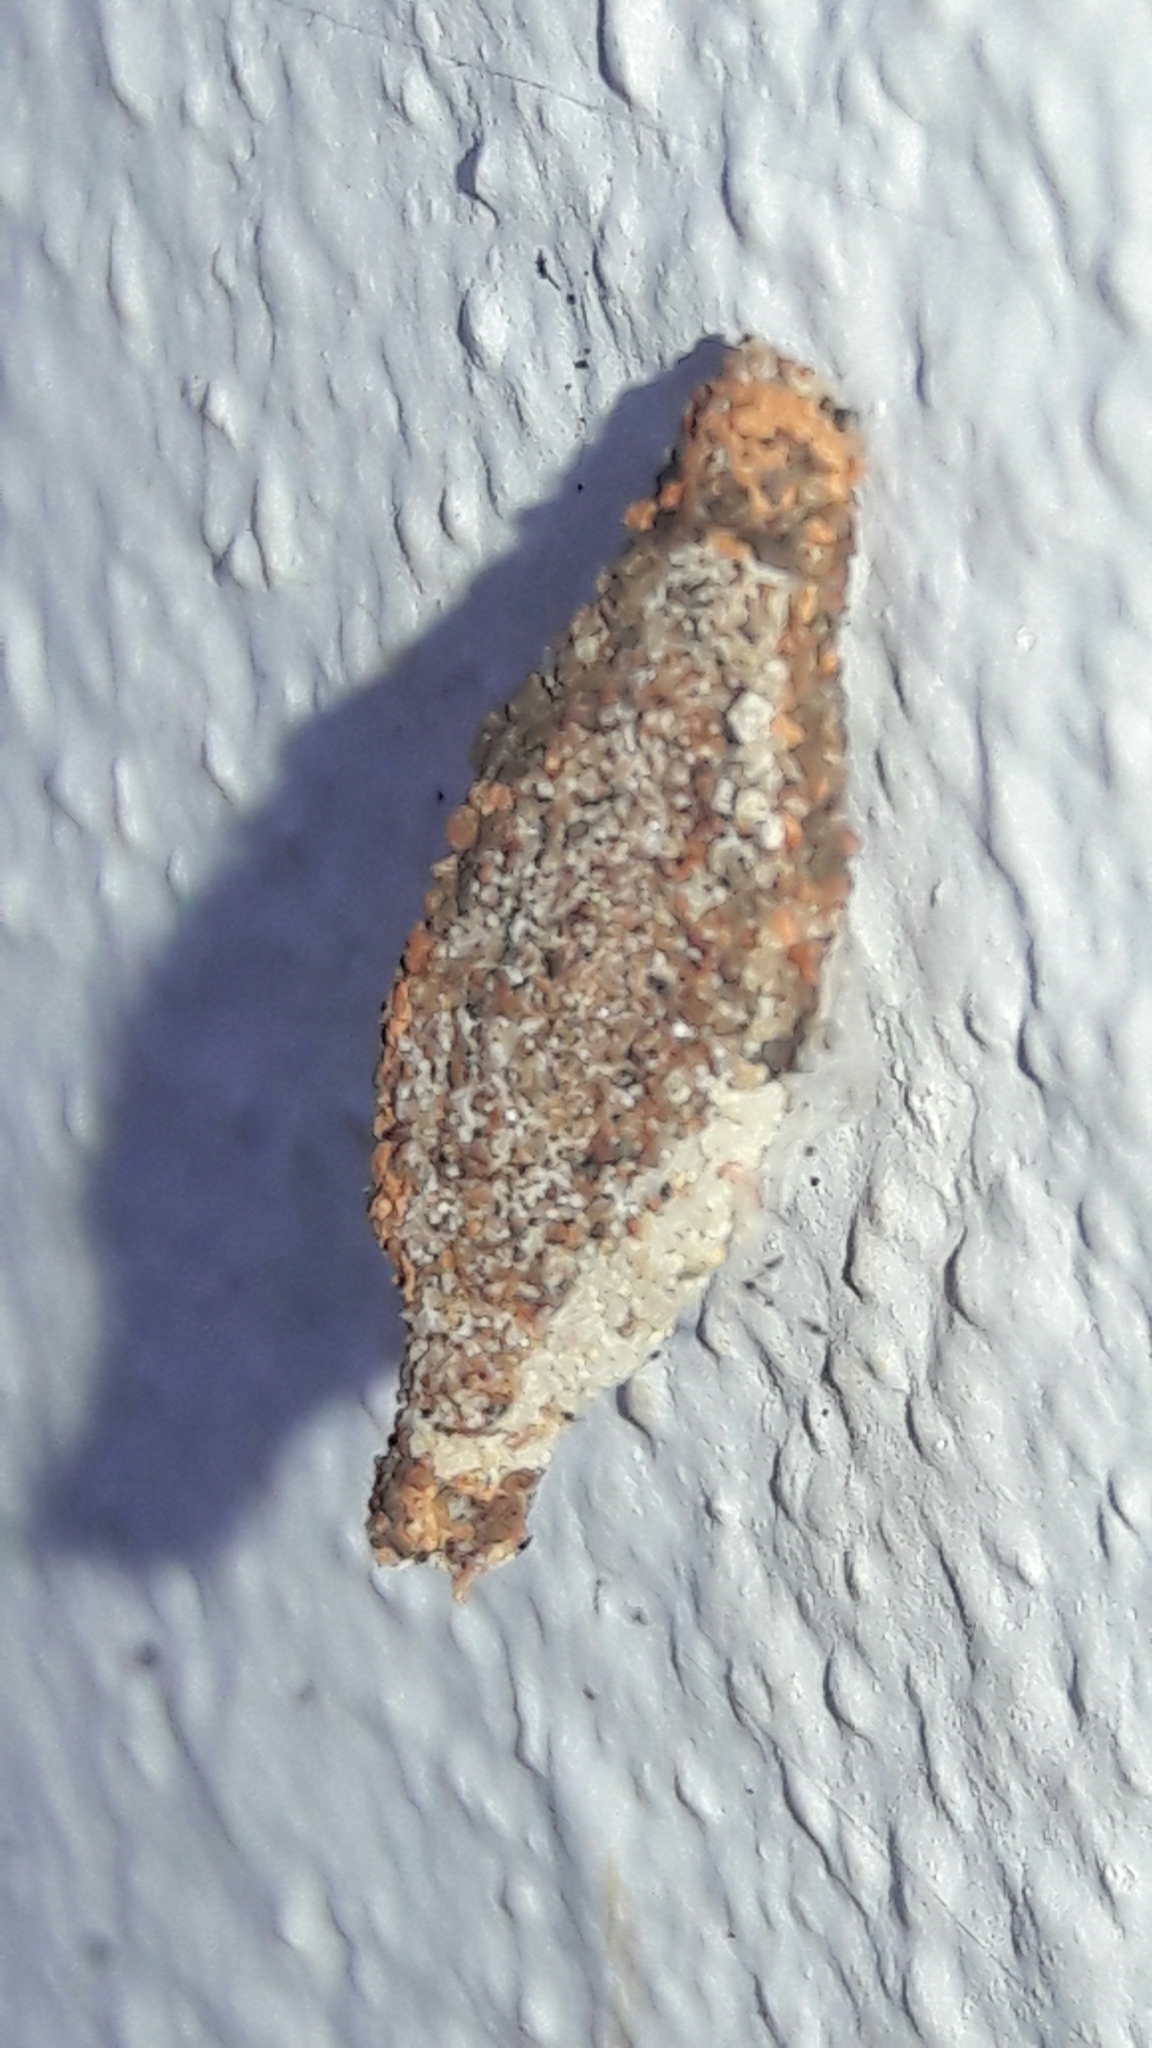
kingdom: Animalia
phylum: Arthropoda
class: Insecta
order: Lepidoptera
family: Tineidae
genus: Phereoeca
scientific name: Phereoeca uterella
